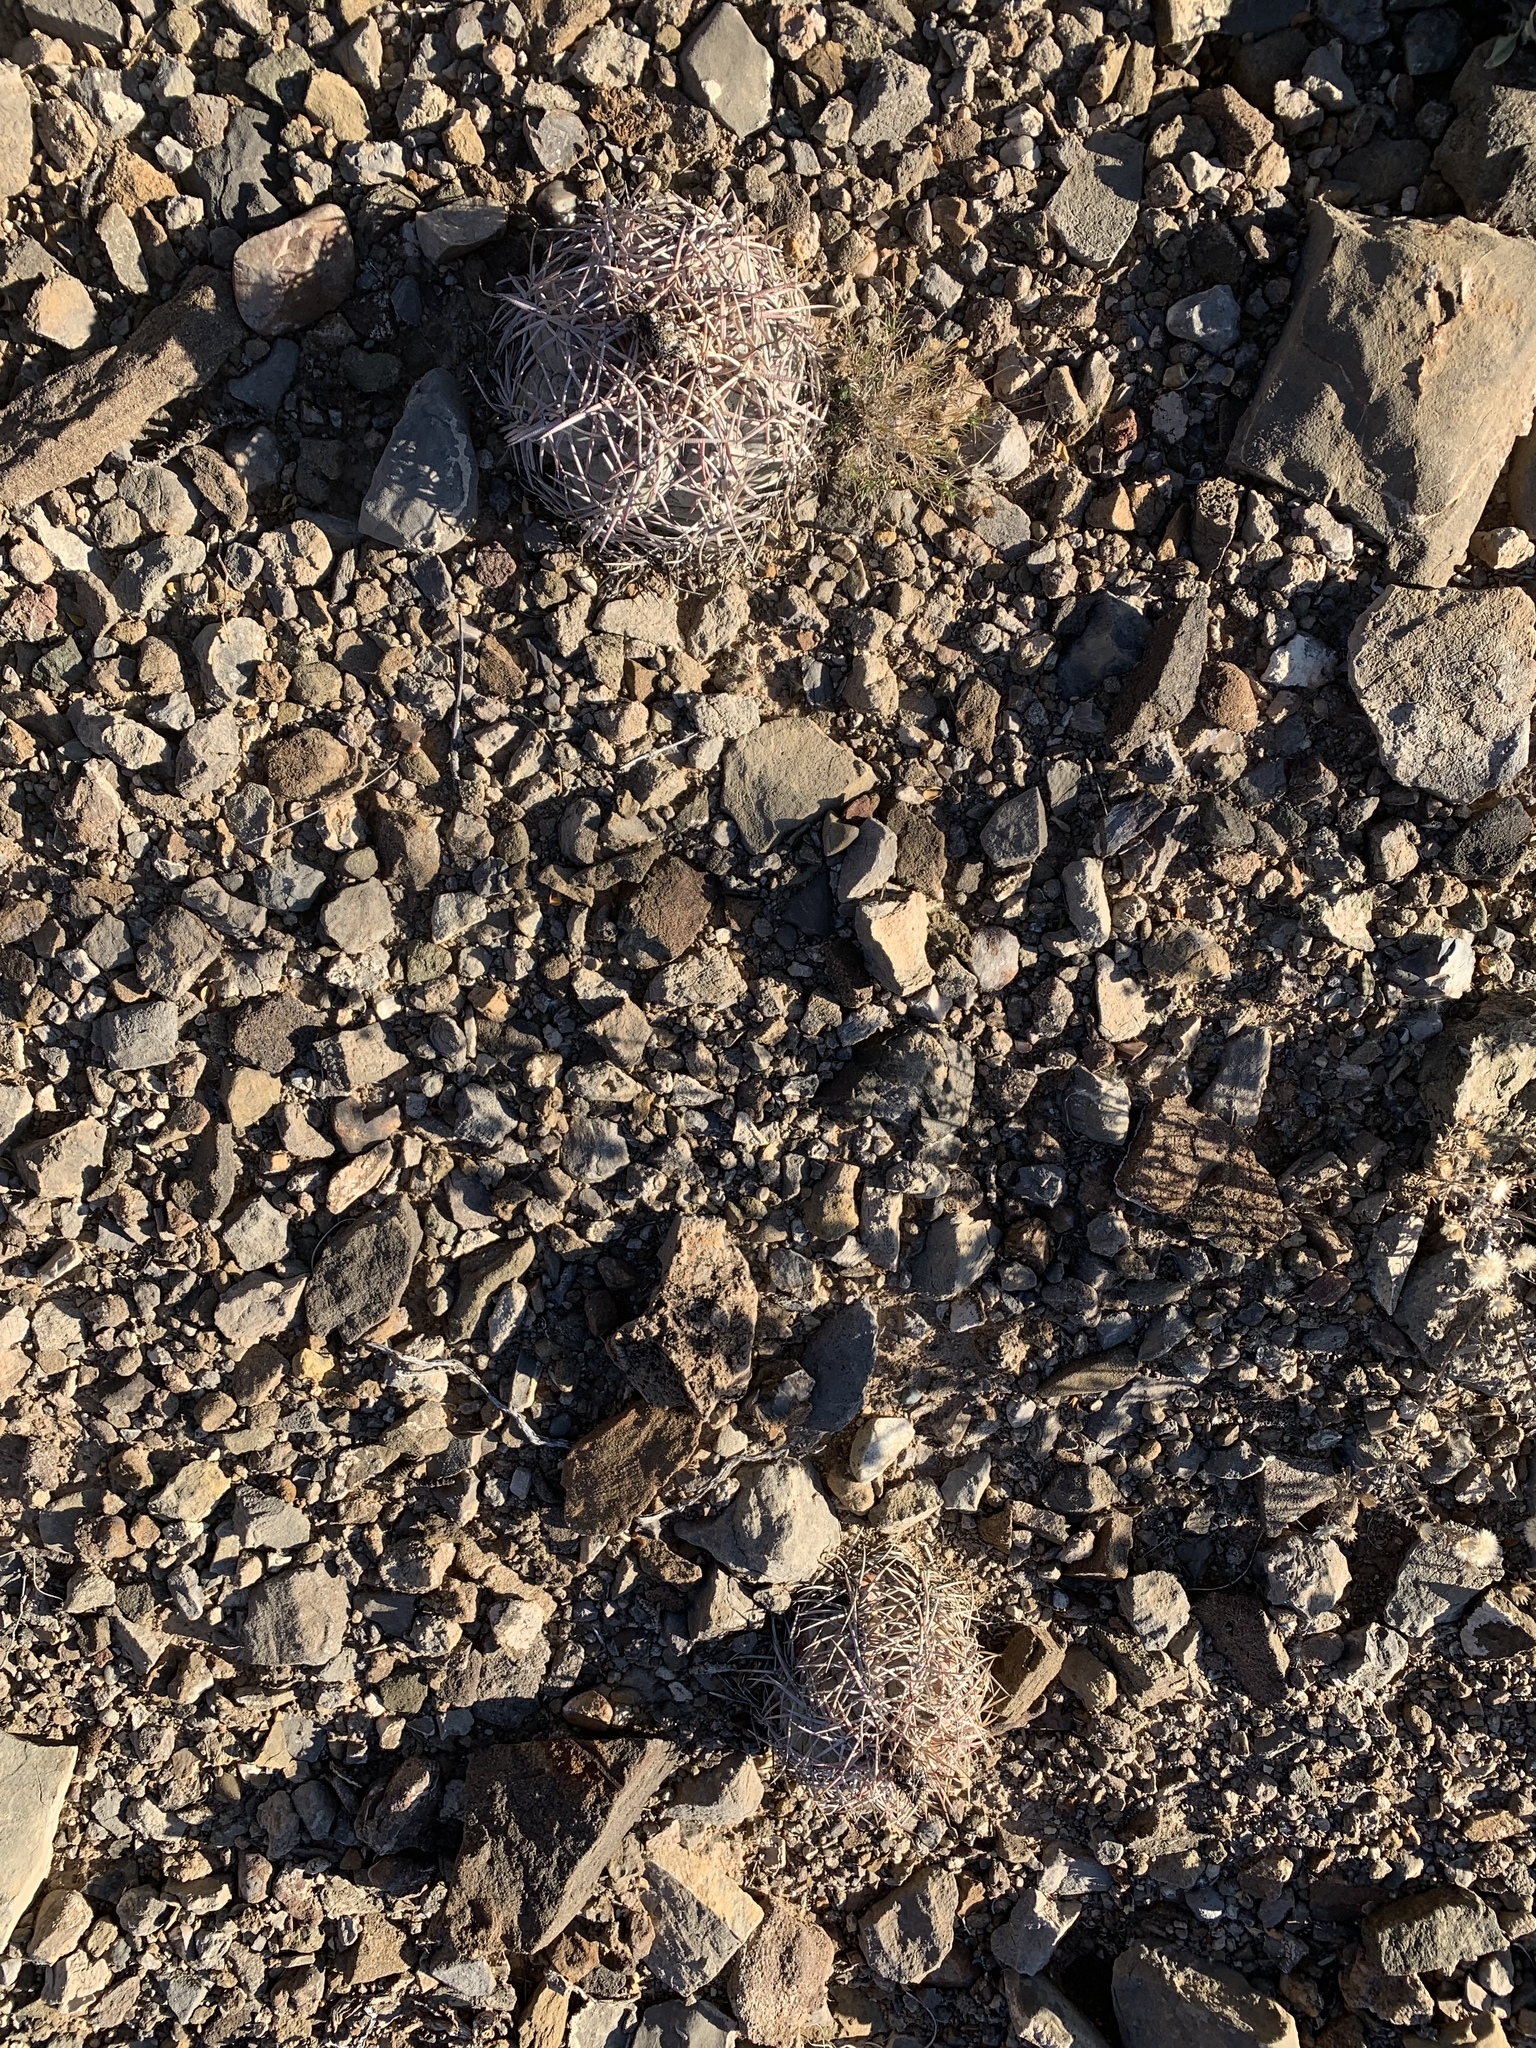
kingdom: Plantae
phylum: Tracheophyta
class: Magnoliopsida
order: Caryophyllales
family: Cactaceae
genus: Echinocactus
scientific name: Echinocactus horizonthalonius
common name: Devilshead
